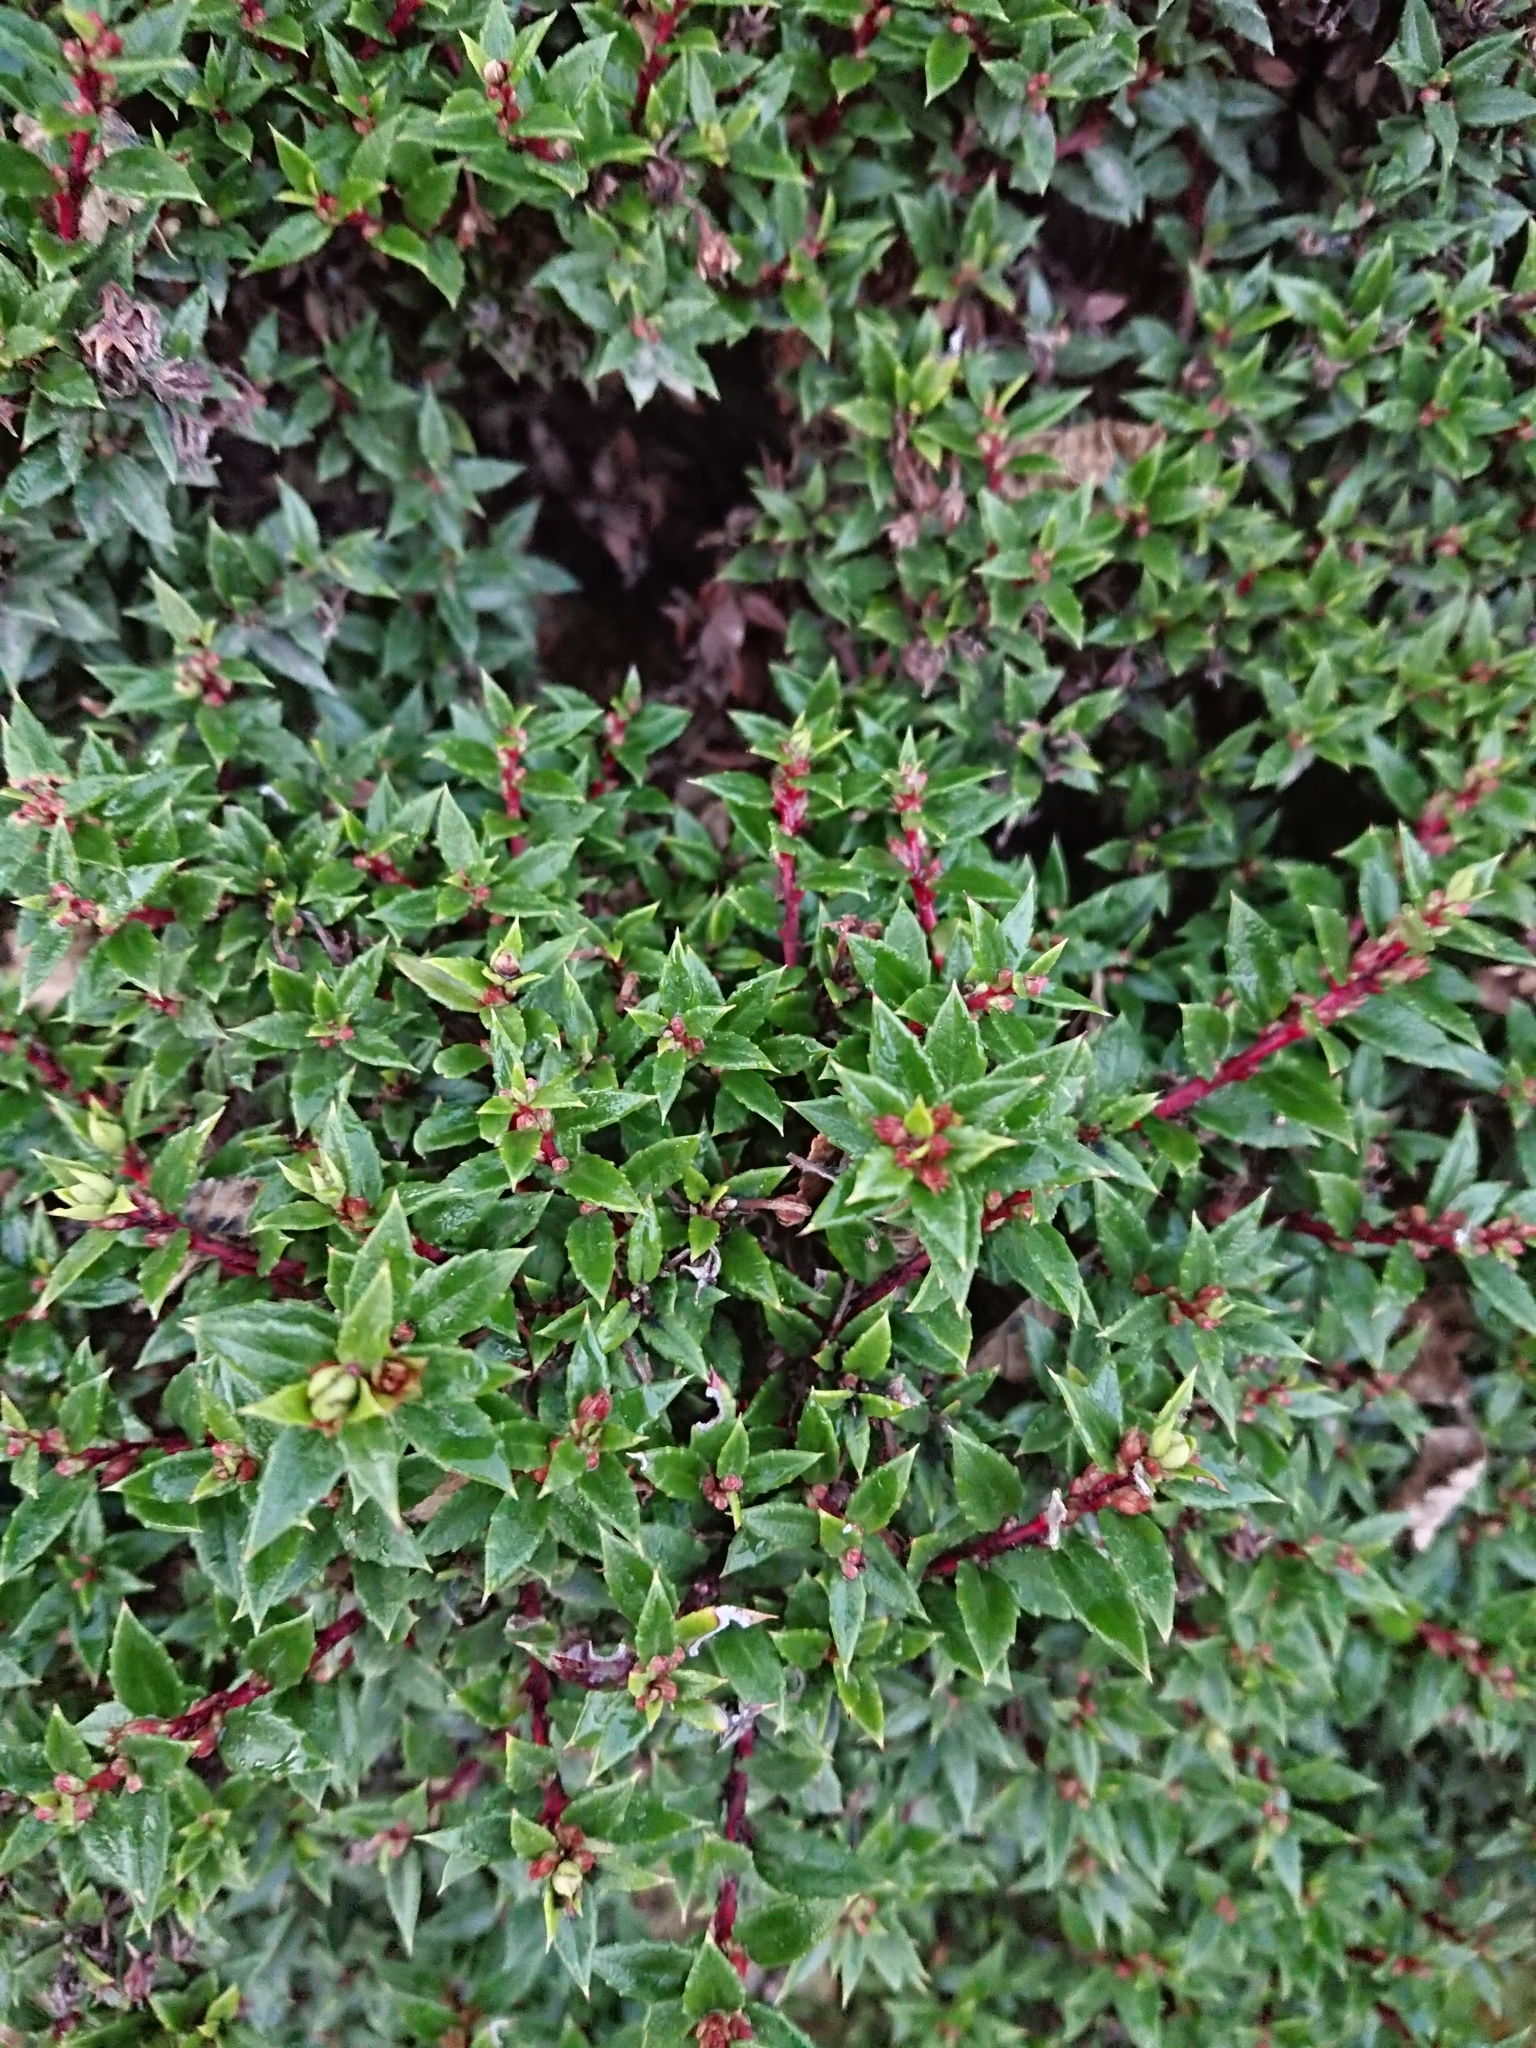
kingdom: Plantae
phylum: Tracheophyta
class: Magnoliopsida
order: Ericales
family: Ericaceae
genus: Gaultheria
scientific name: Gaultheria mucronata
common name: Prickly heath
